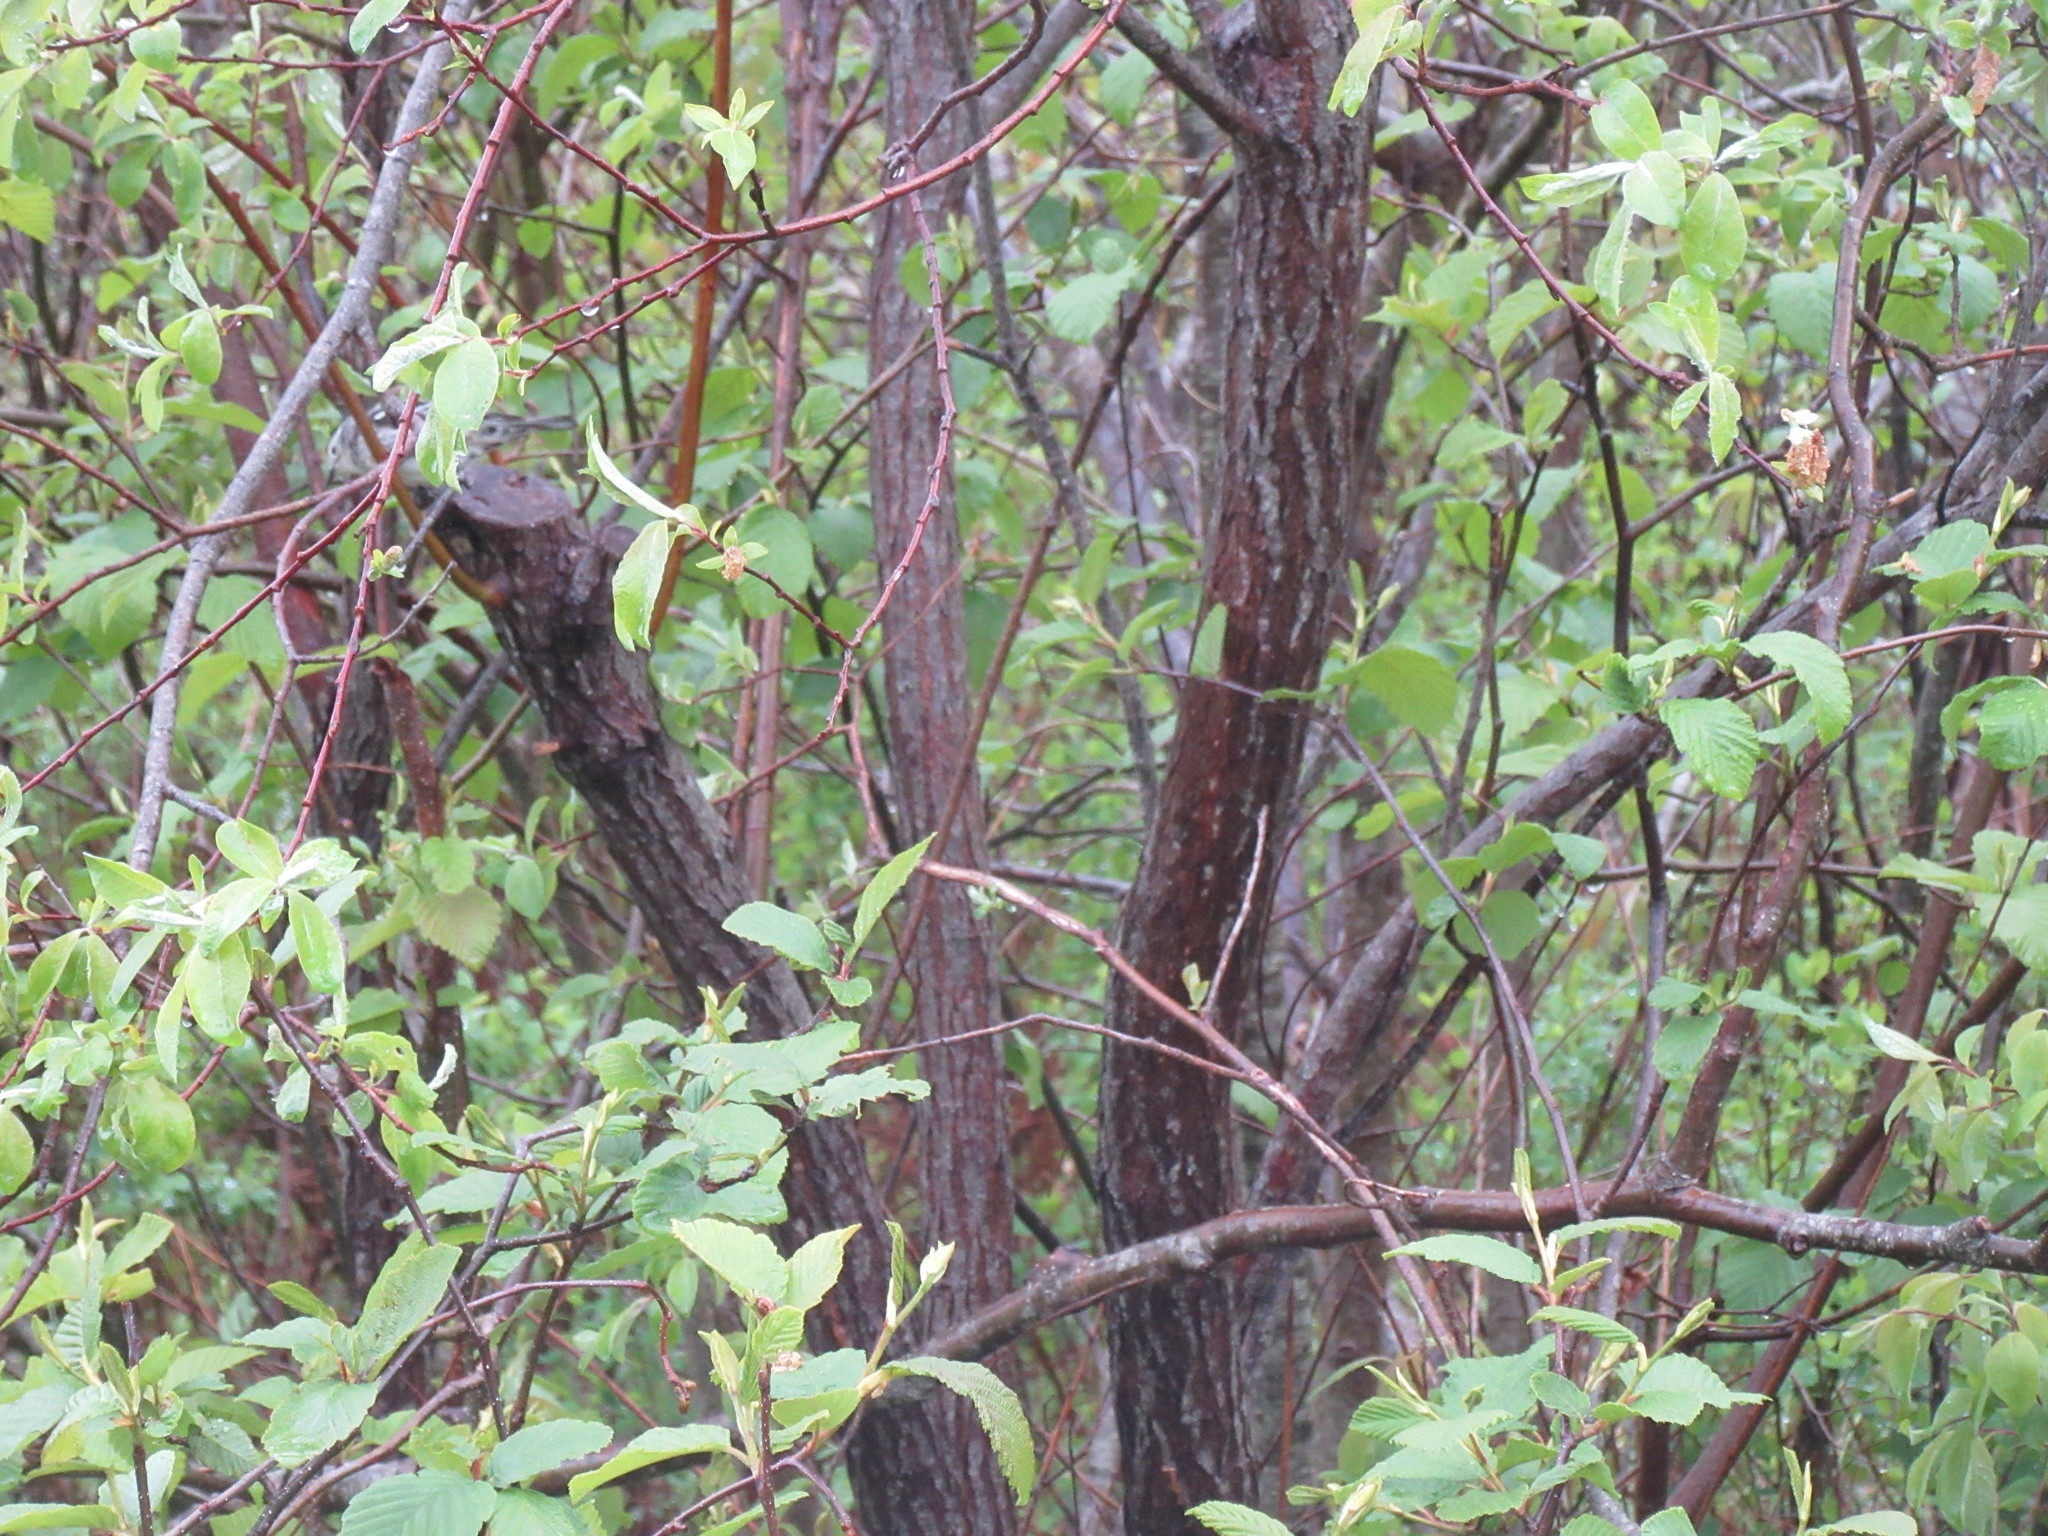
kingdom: Animalia
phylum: Chordata
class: Aves
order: Passeriformes
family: Parulidae
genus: Mniotilta
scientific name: Mniotilta varia
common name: Black-and-white warbler
